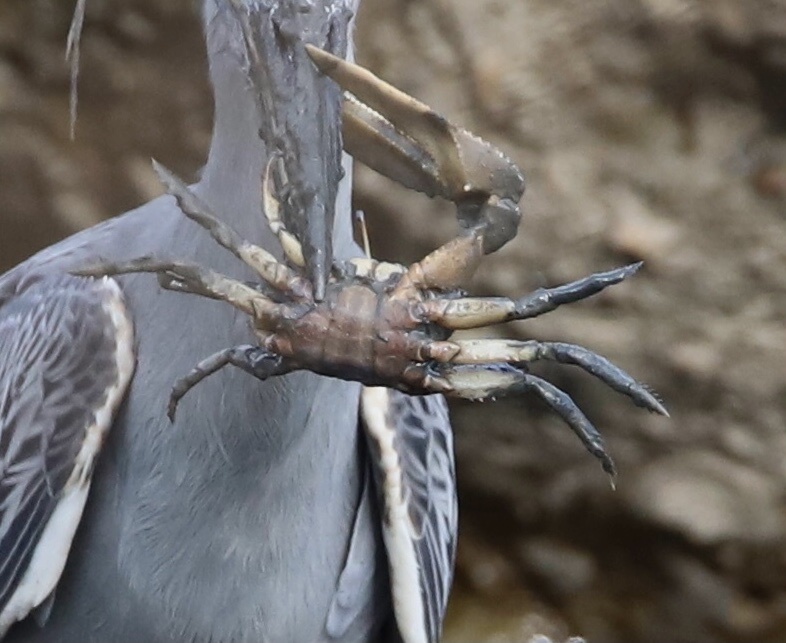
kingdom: Animalia
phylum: Arthropoda
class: Malacostraca
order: Decapoda
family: Ocypodidae
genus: Uca
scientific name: Uca ornata
